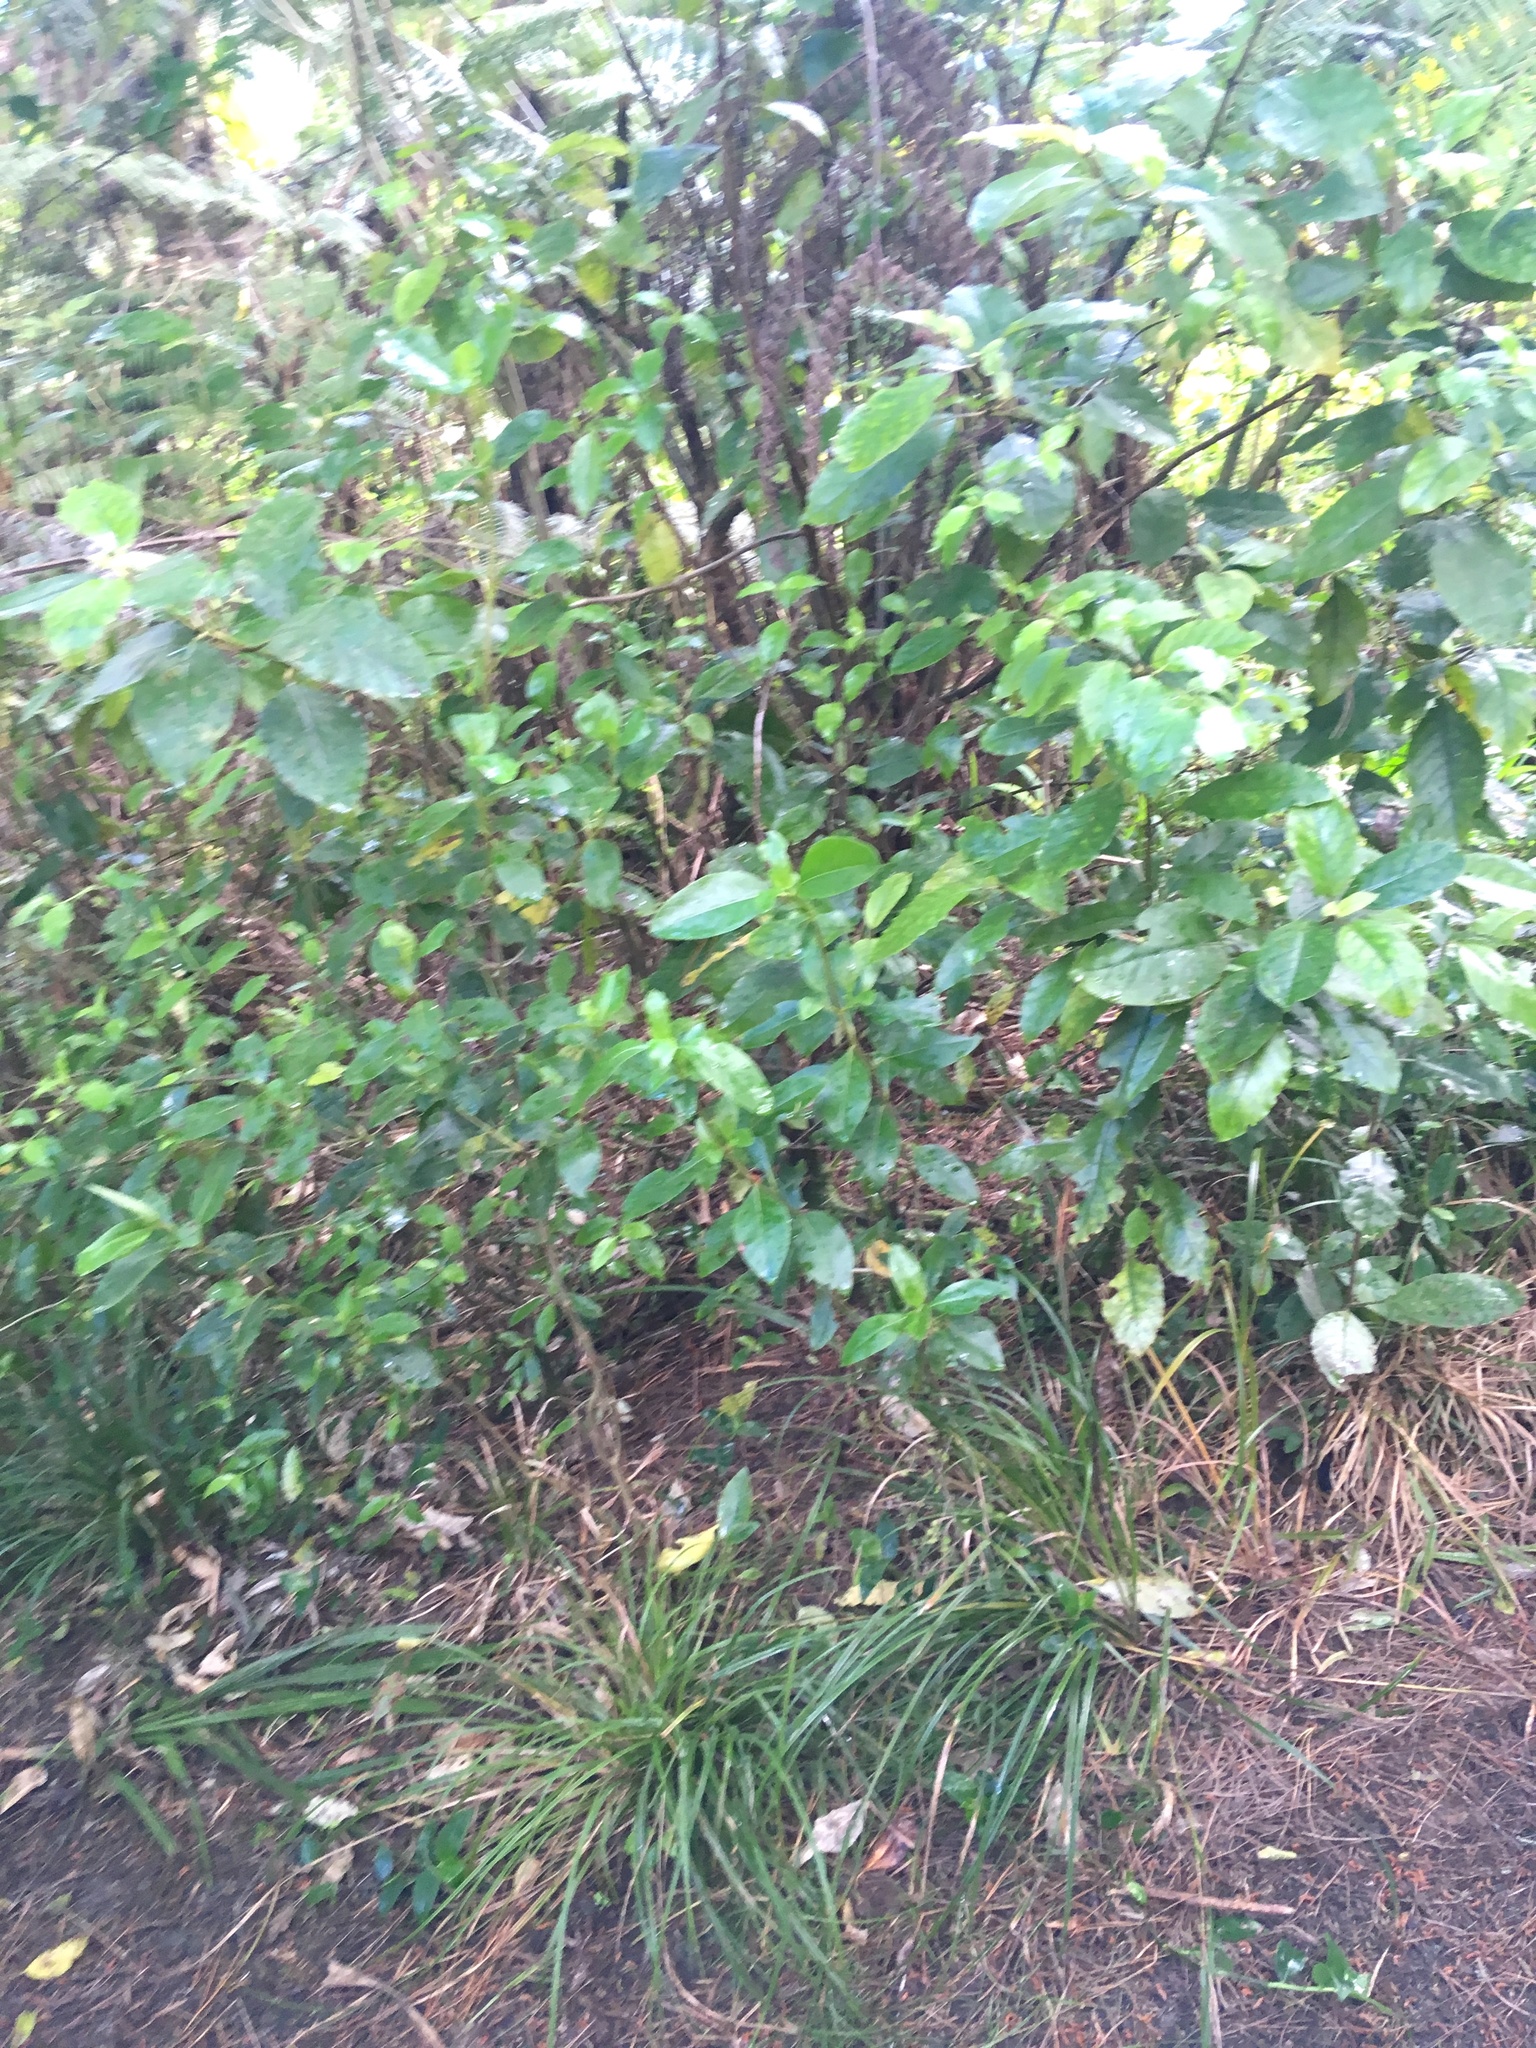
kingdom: Plantae
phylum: Tracheophyta
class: Magnoliopsida
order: Gentianales
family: Rubiaceae
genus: Coprosma
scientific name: Coprosma autumnalis
